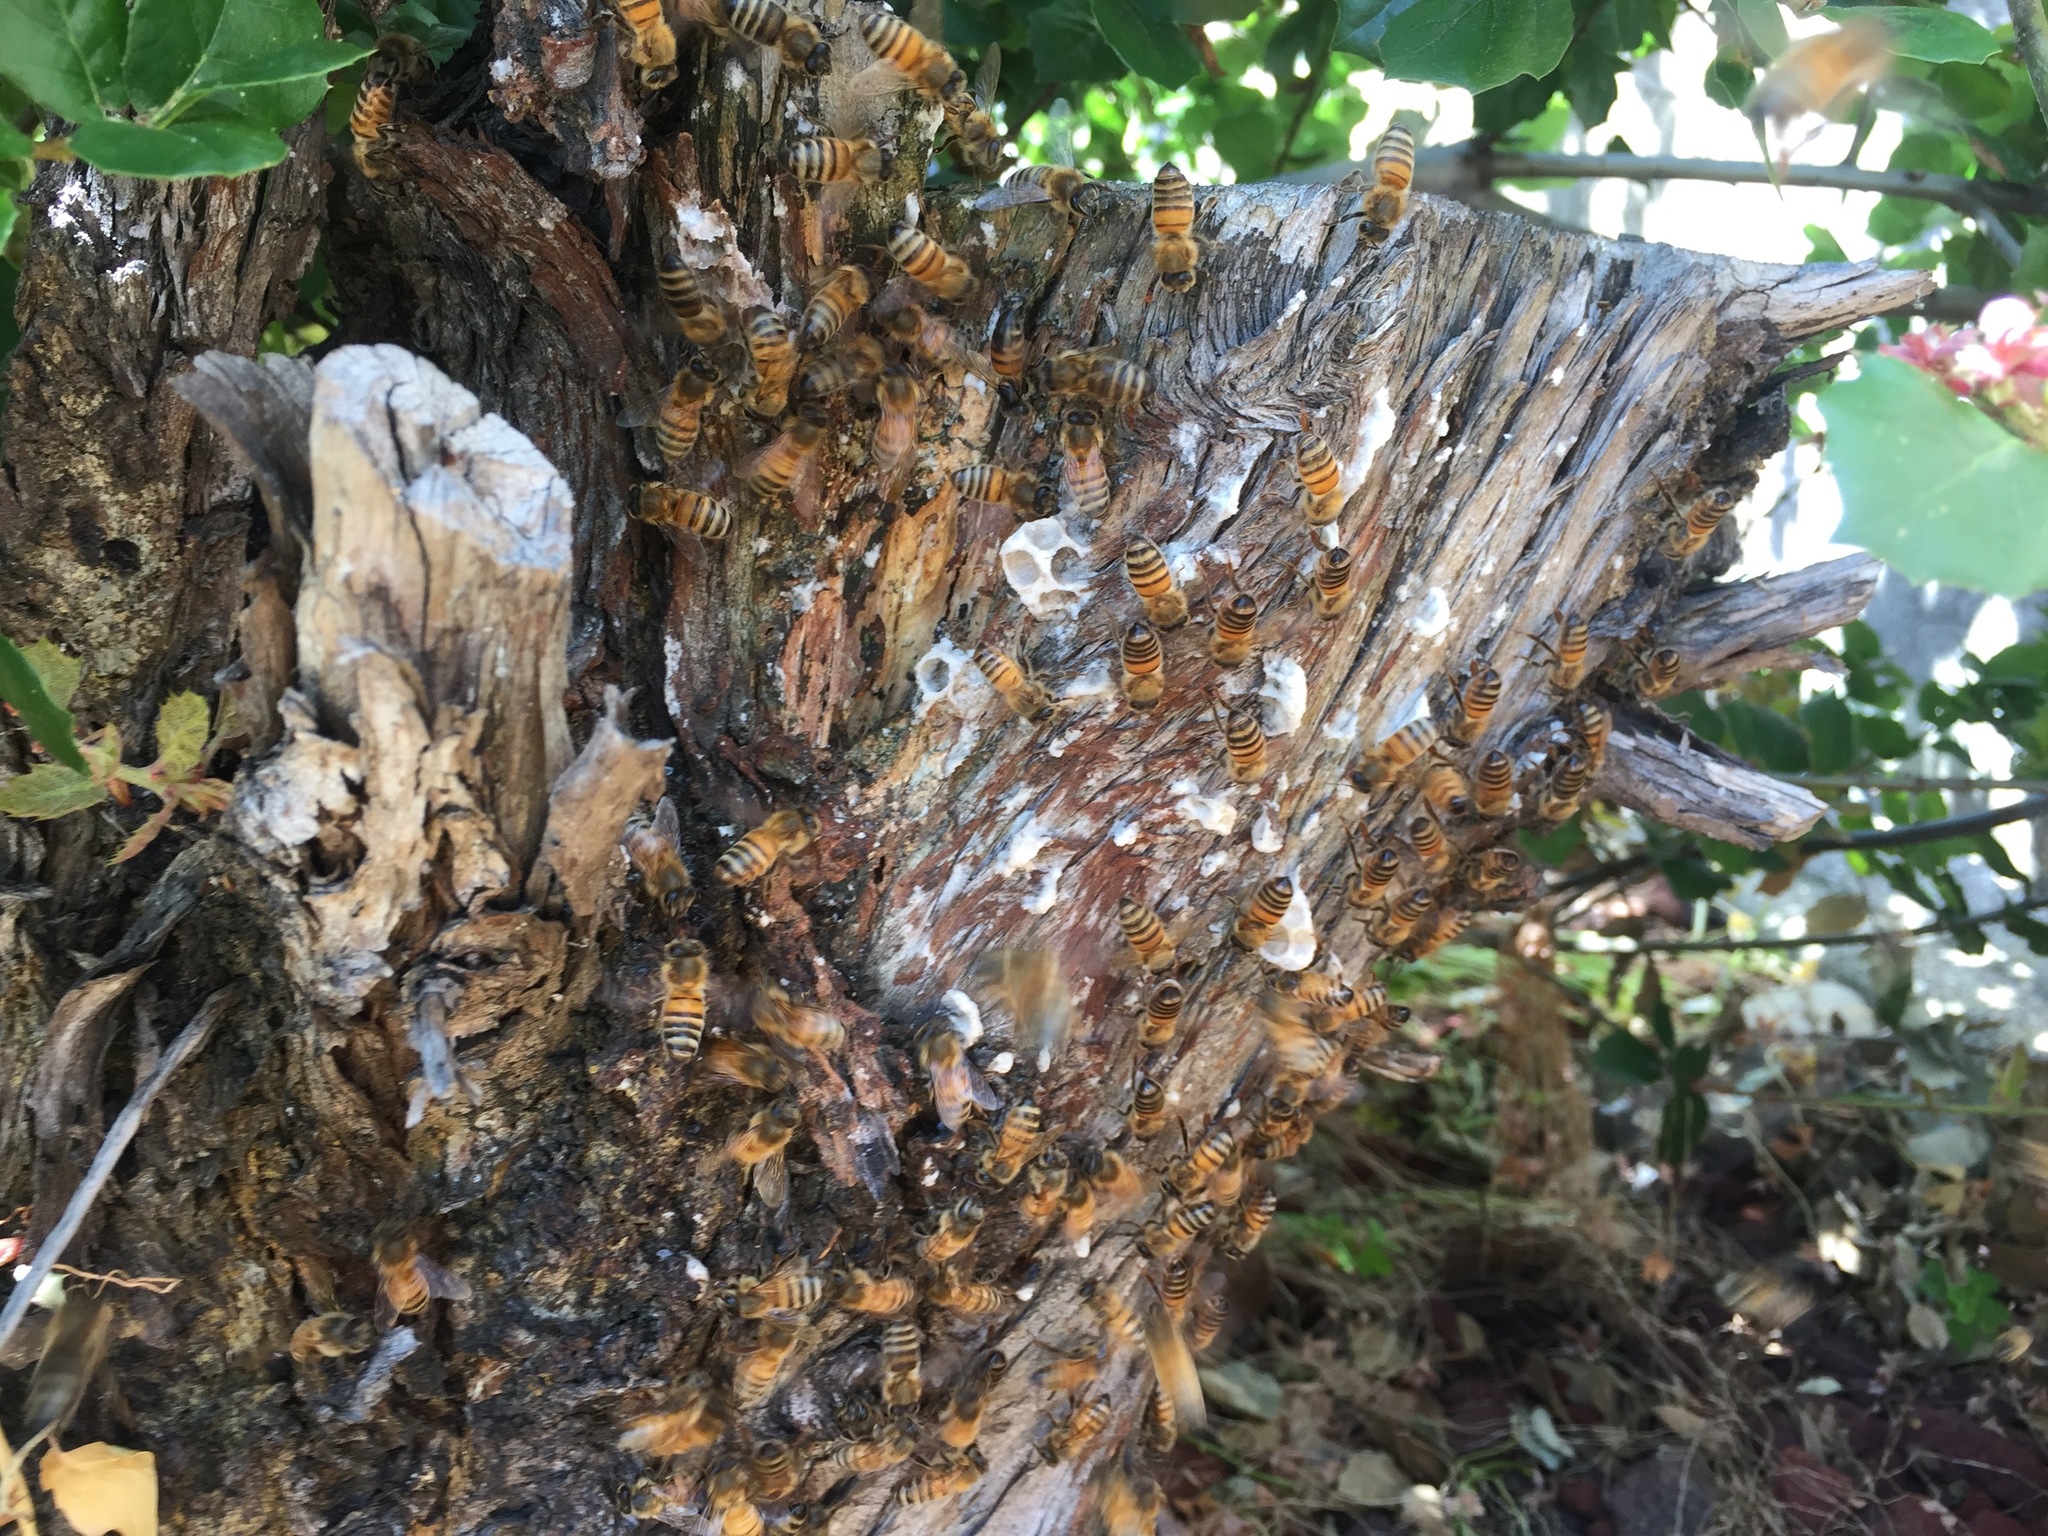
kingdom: Animalia
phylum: Arthropoda
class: Insecta
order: Hymenoptera
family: Apidae
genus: Apis
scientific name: Apis mellifera
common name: Honey bee
